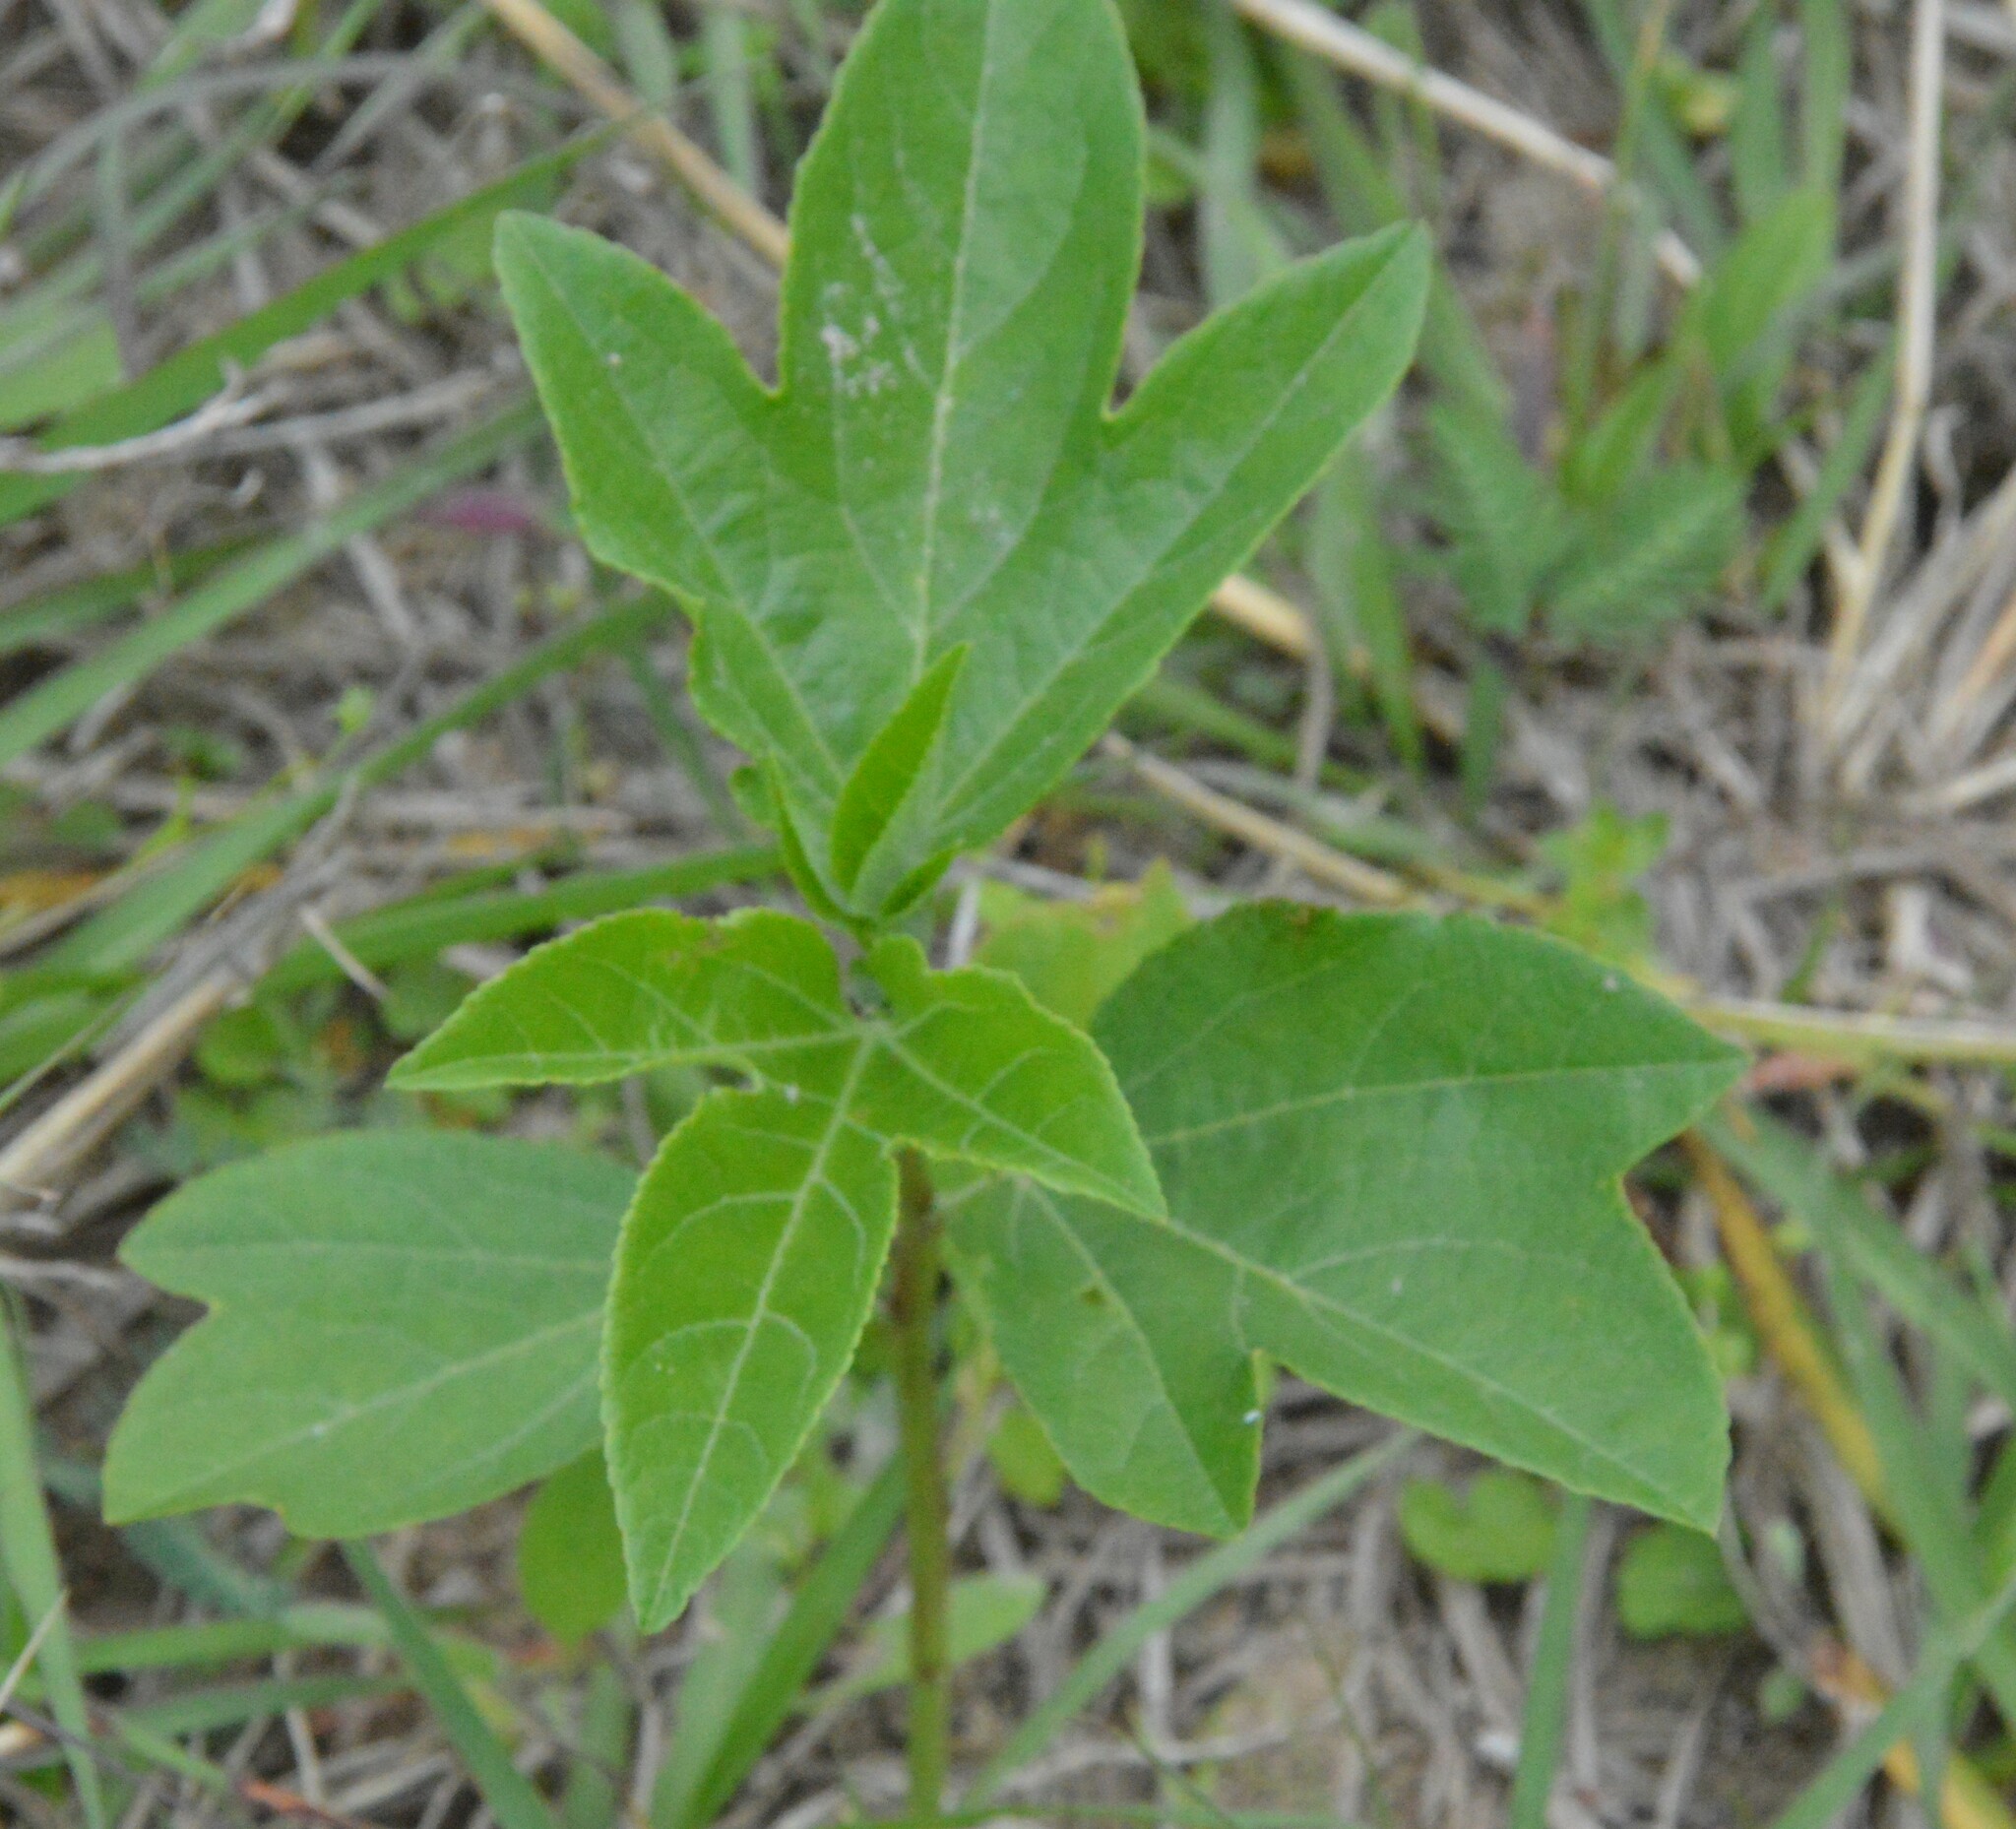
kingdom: Plantae
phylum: Tracheophyta
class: Magnoliopsida
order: Malpighiales
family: Passifloraceae
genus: Passiflora
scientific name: Passiflora incarnata
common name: Apricot-vine
